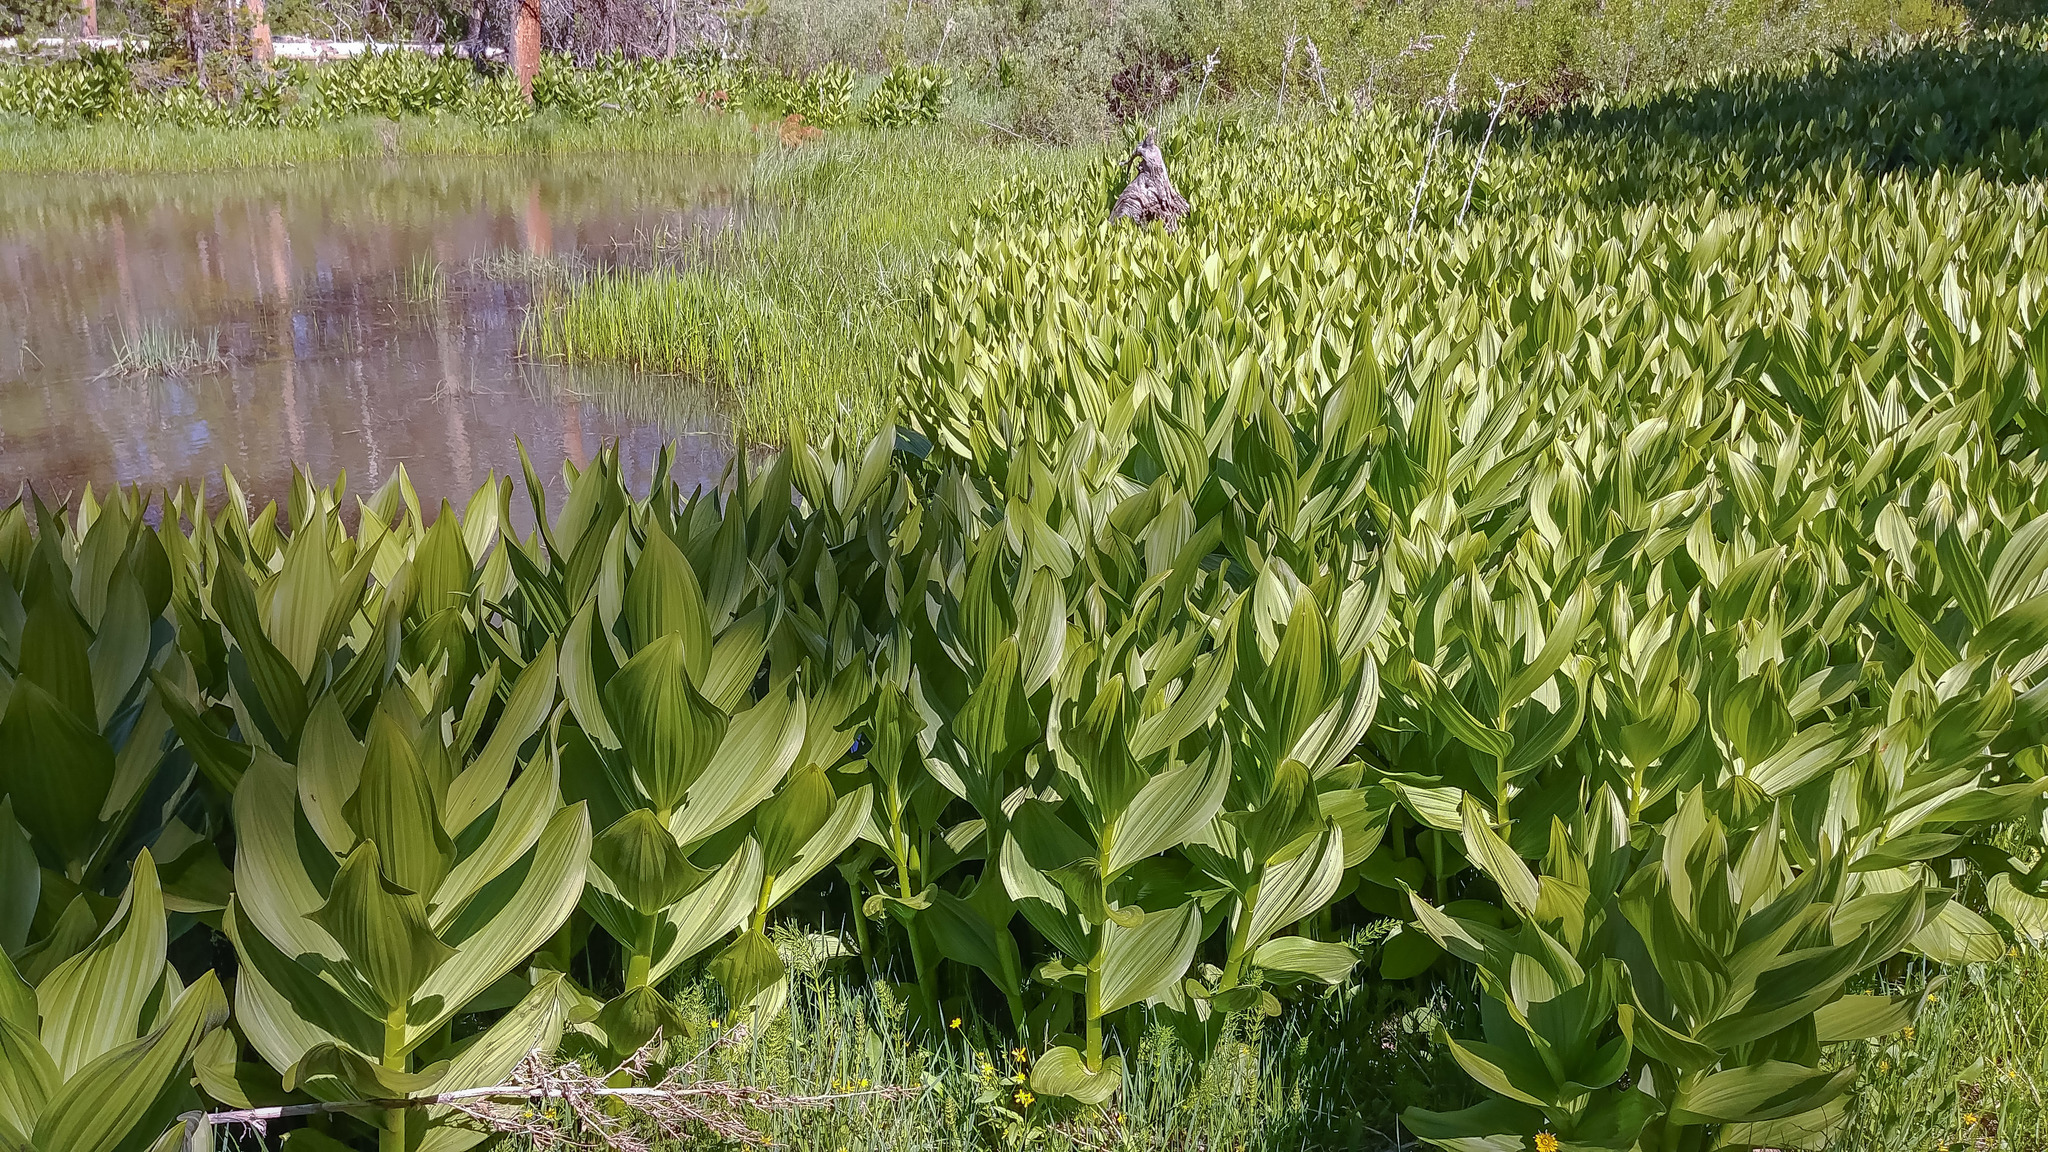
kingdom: Plantae
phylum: Tracheophyta
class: Liliopsida
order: Liliales
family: Melanthiaceae
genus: Veratrum
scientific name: Veratrum californicum
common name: California veratrum
